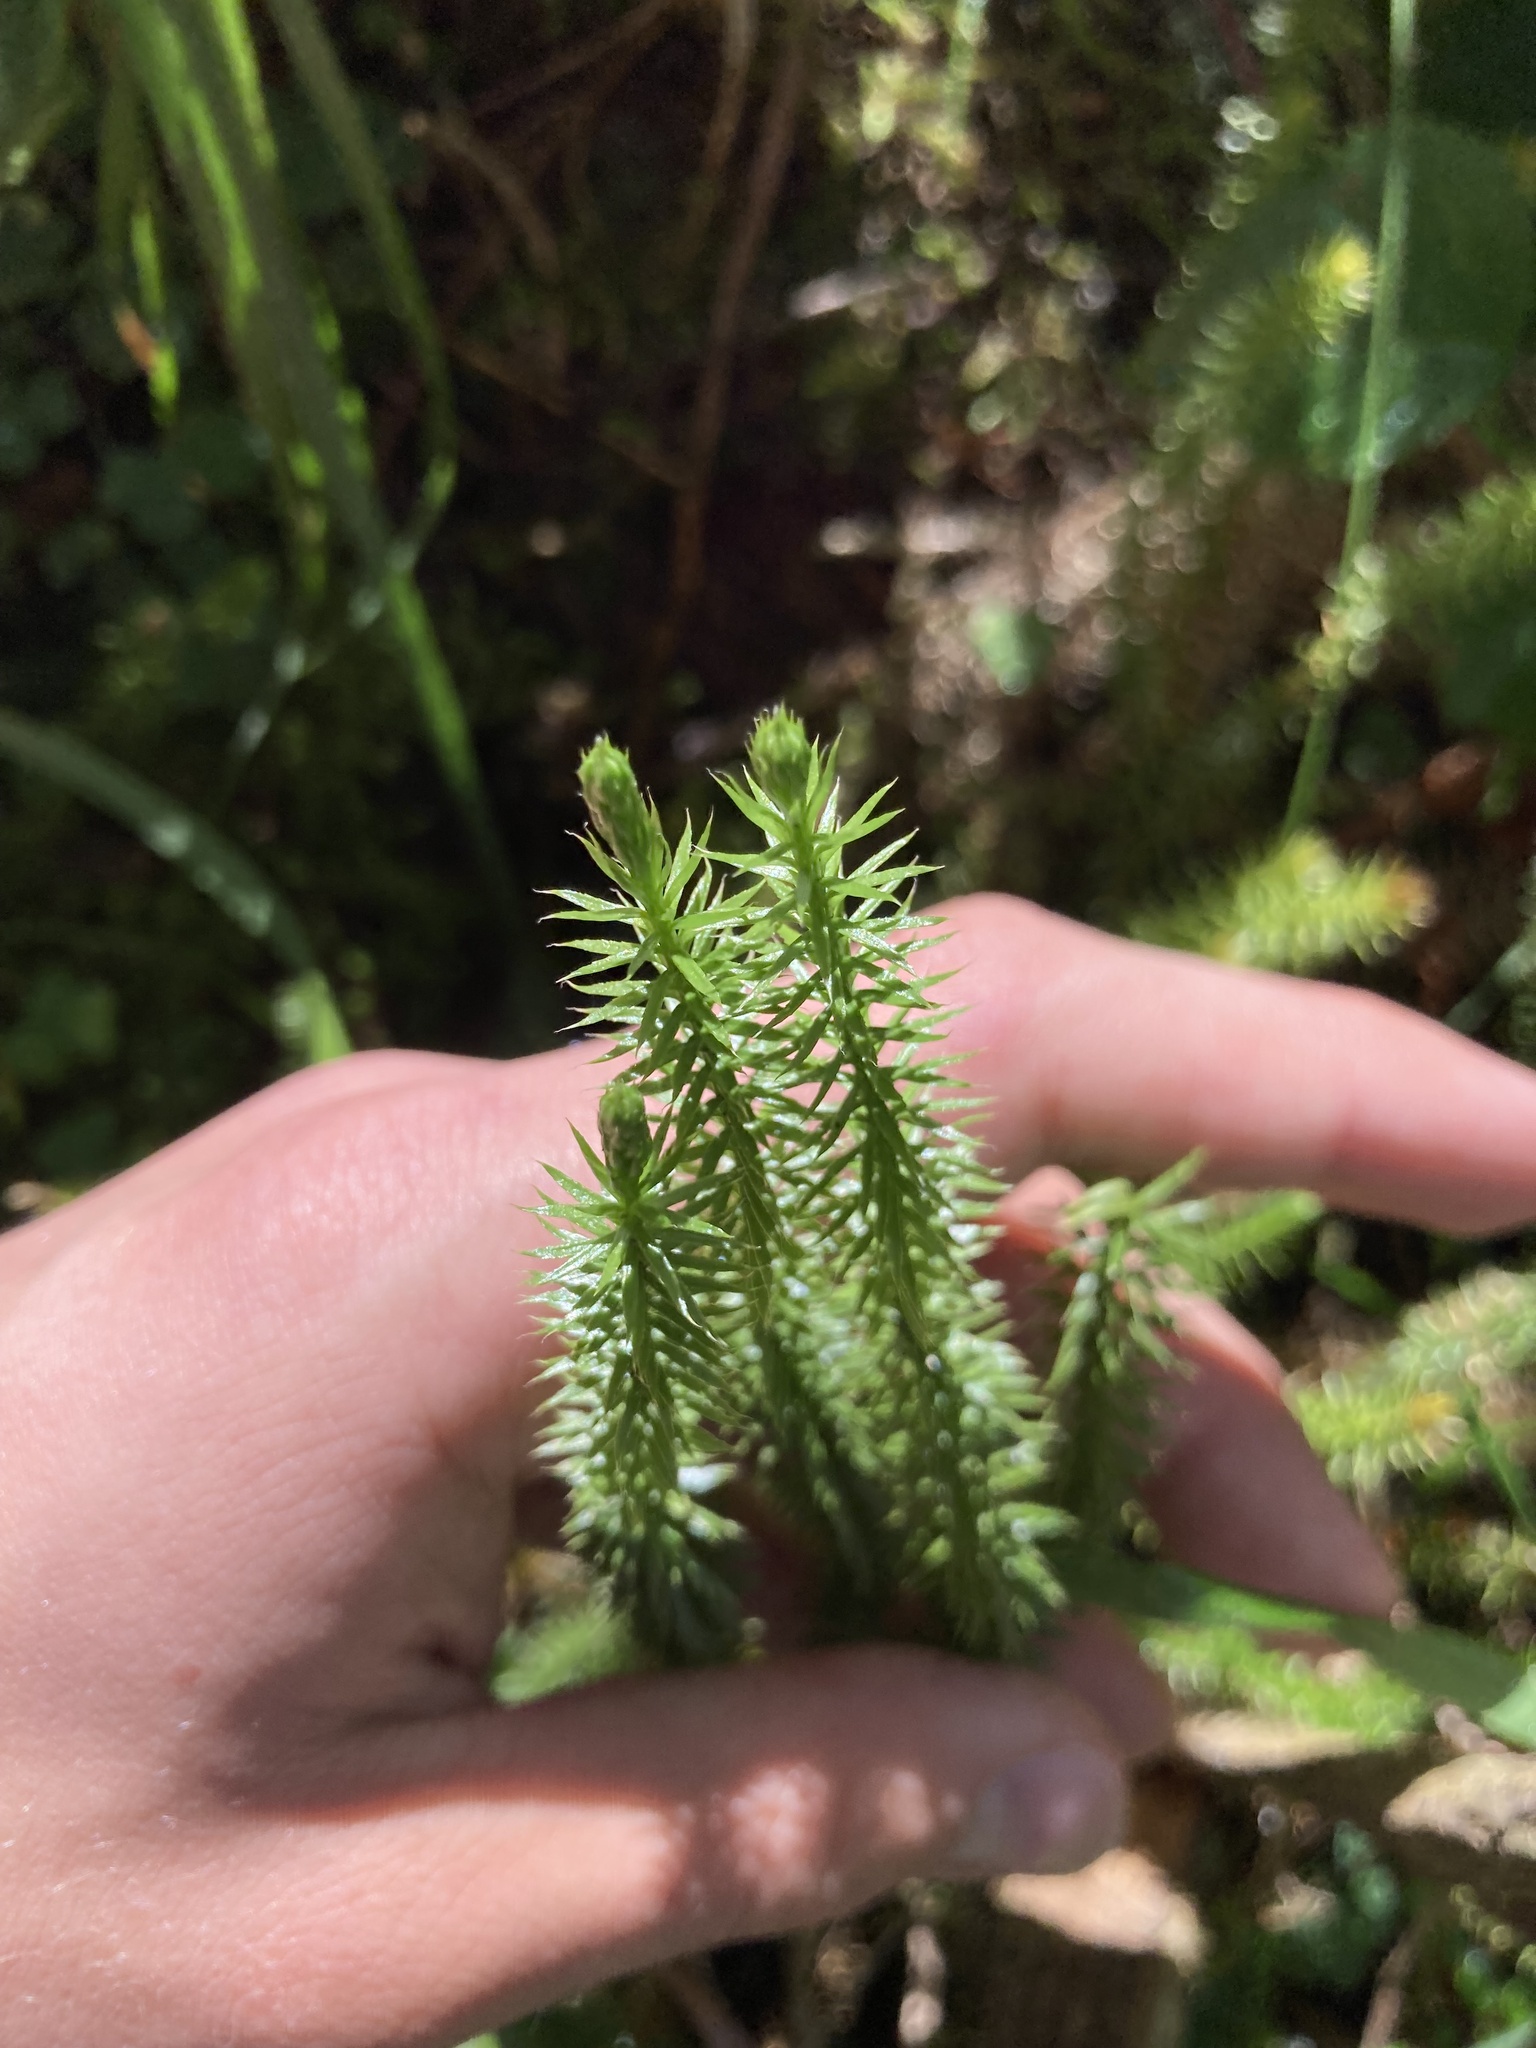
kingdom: Plantae
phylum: Tracheophyta
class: Lycopodiopsida
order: Lycopodiales
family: Lycopodiaceae
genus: Spinulum
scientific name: Spinulum annotinum
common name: Interrupted club-moss
